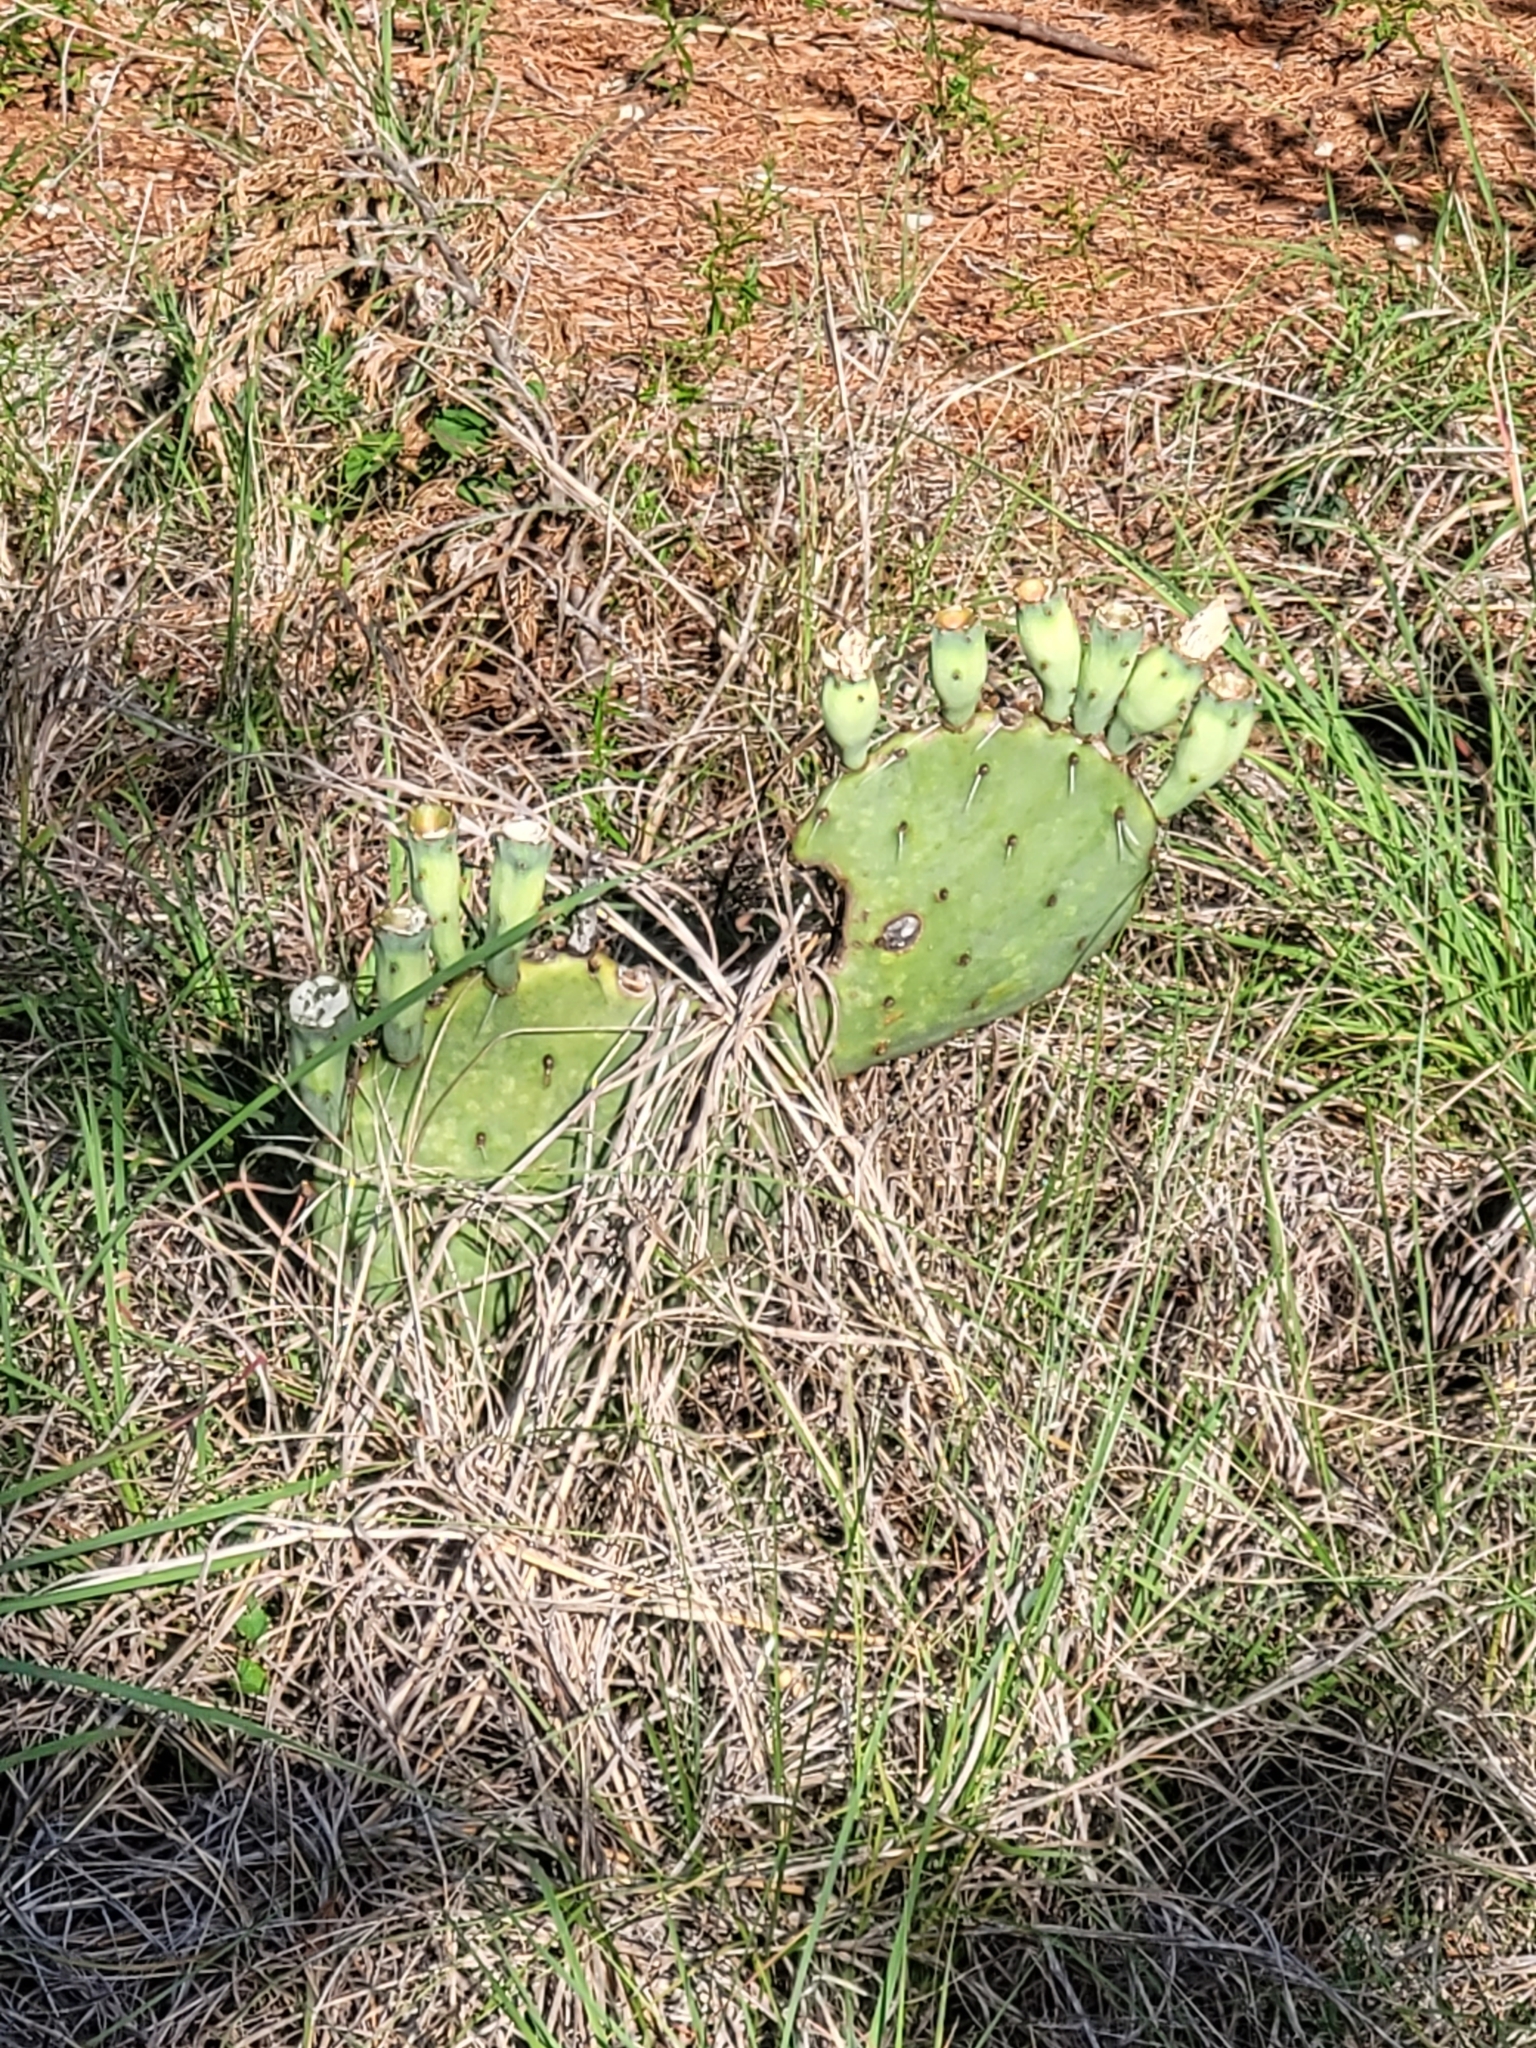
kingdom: Plantae
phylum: Tracheophyta
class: Magnoliopsida
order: Caryophyllales
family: Cactaceae
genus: Opuntia
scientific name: Opuntia macrorhiza
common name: Grassland pricklypear
